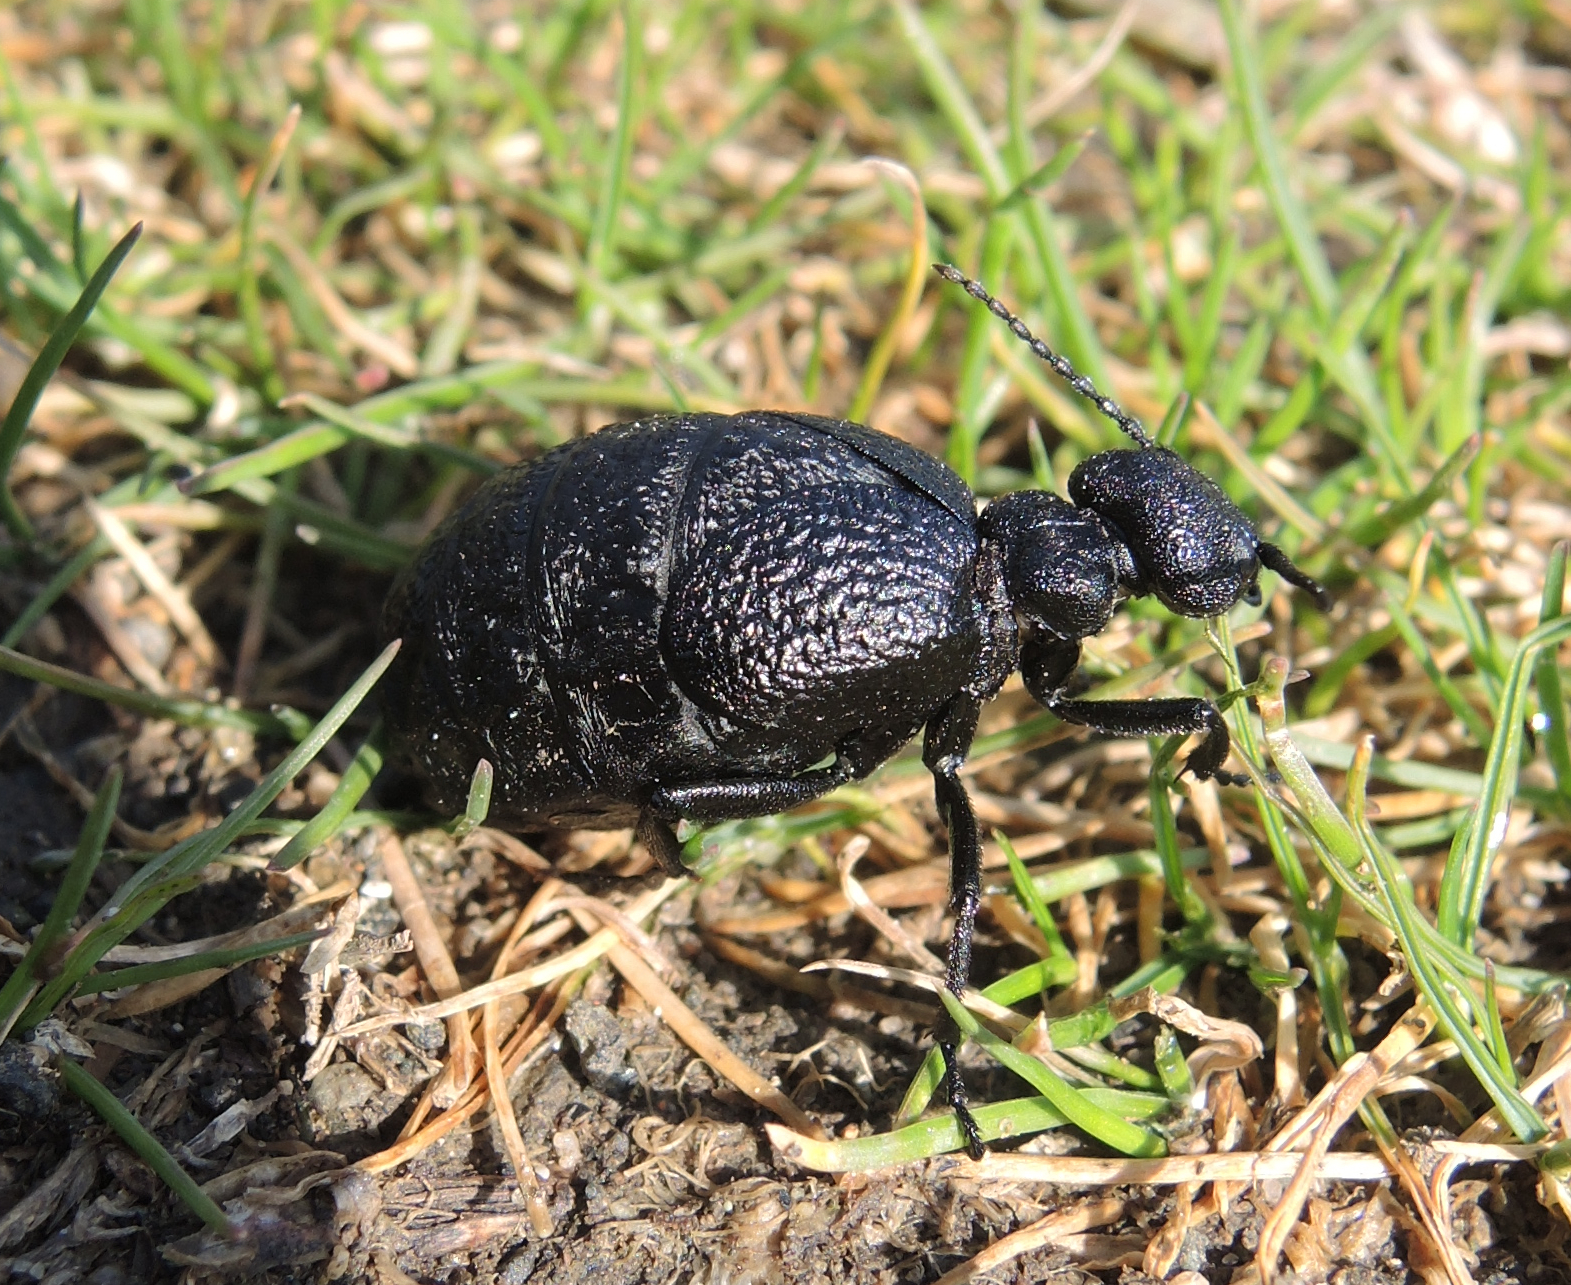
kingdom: Animalia
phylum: Arthropoda
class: Insecta
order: Coleoptera
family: Meloidae
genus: Meloe
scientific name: Meloe rugosus
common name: Rugged oil-beetle
